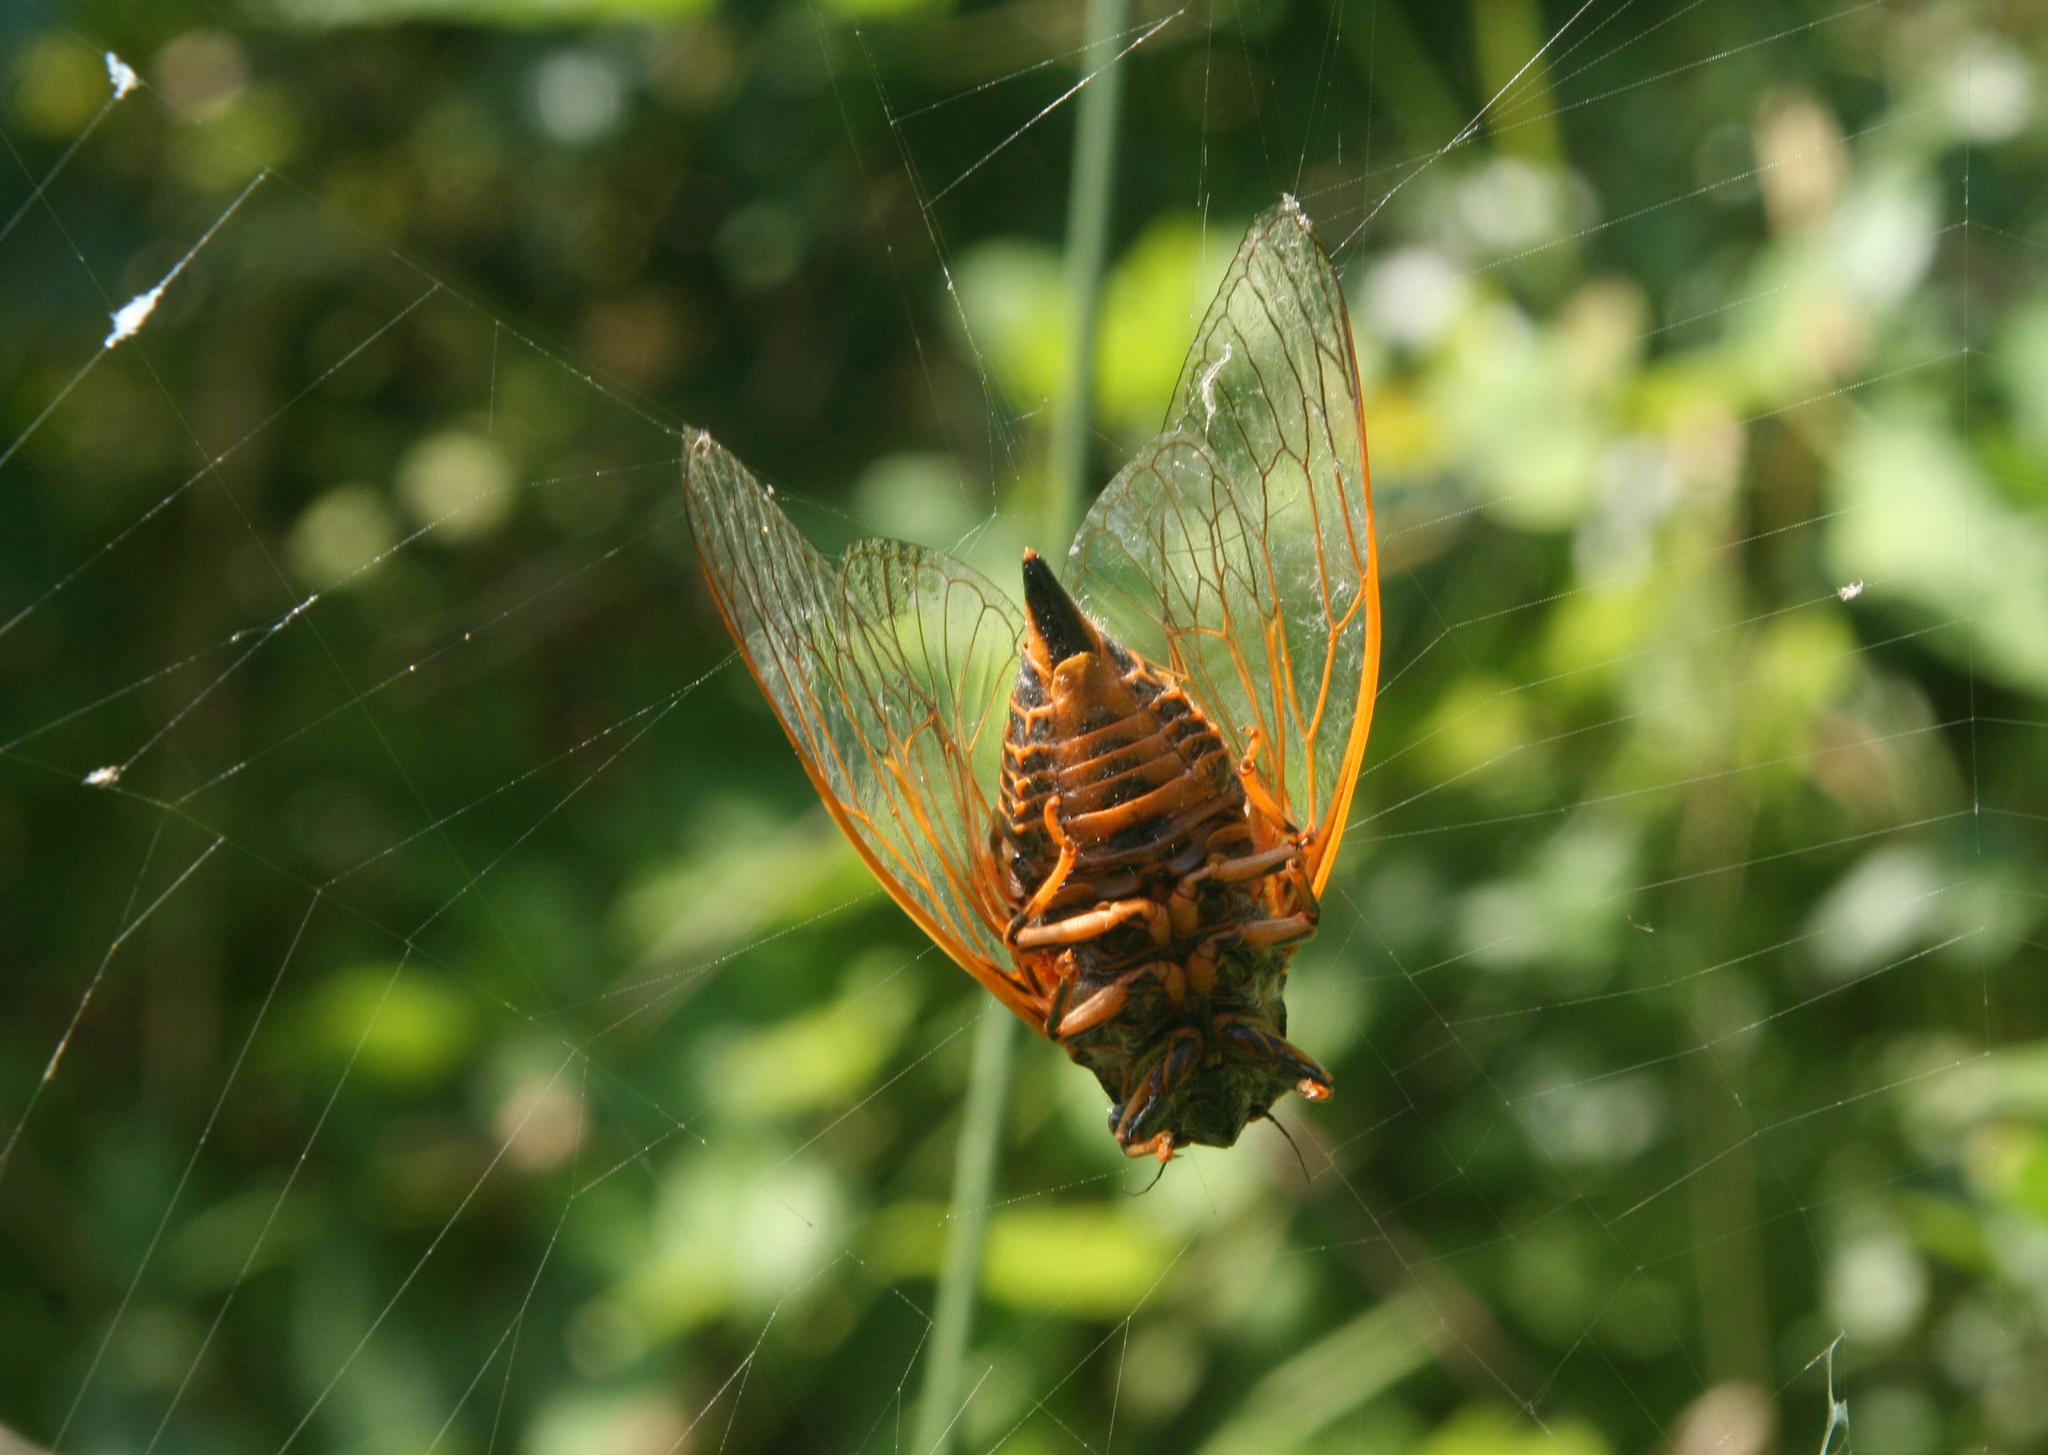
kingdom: Animalia
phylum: Arthropoda
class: Insecta
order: Hemiptera
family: Cicadidae
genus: Tibicina
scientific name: Tibicina steveni
